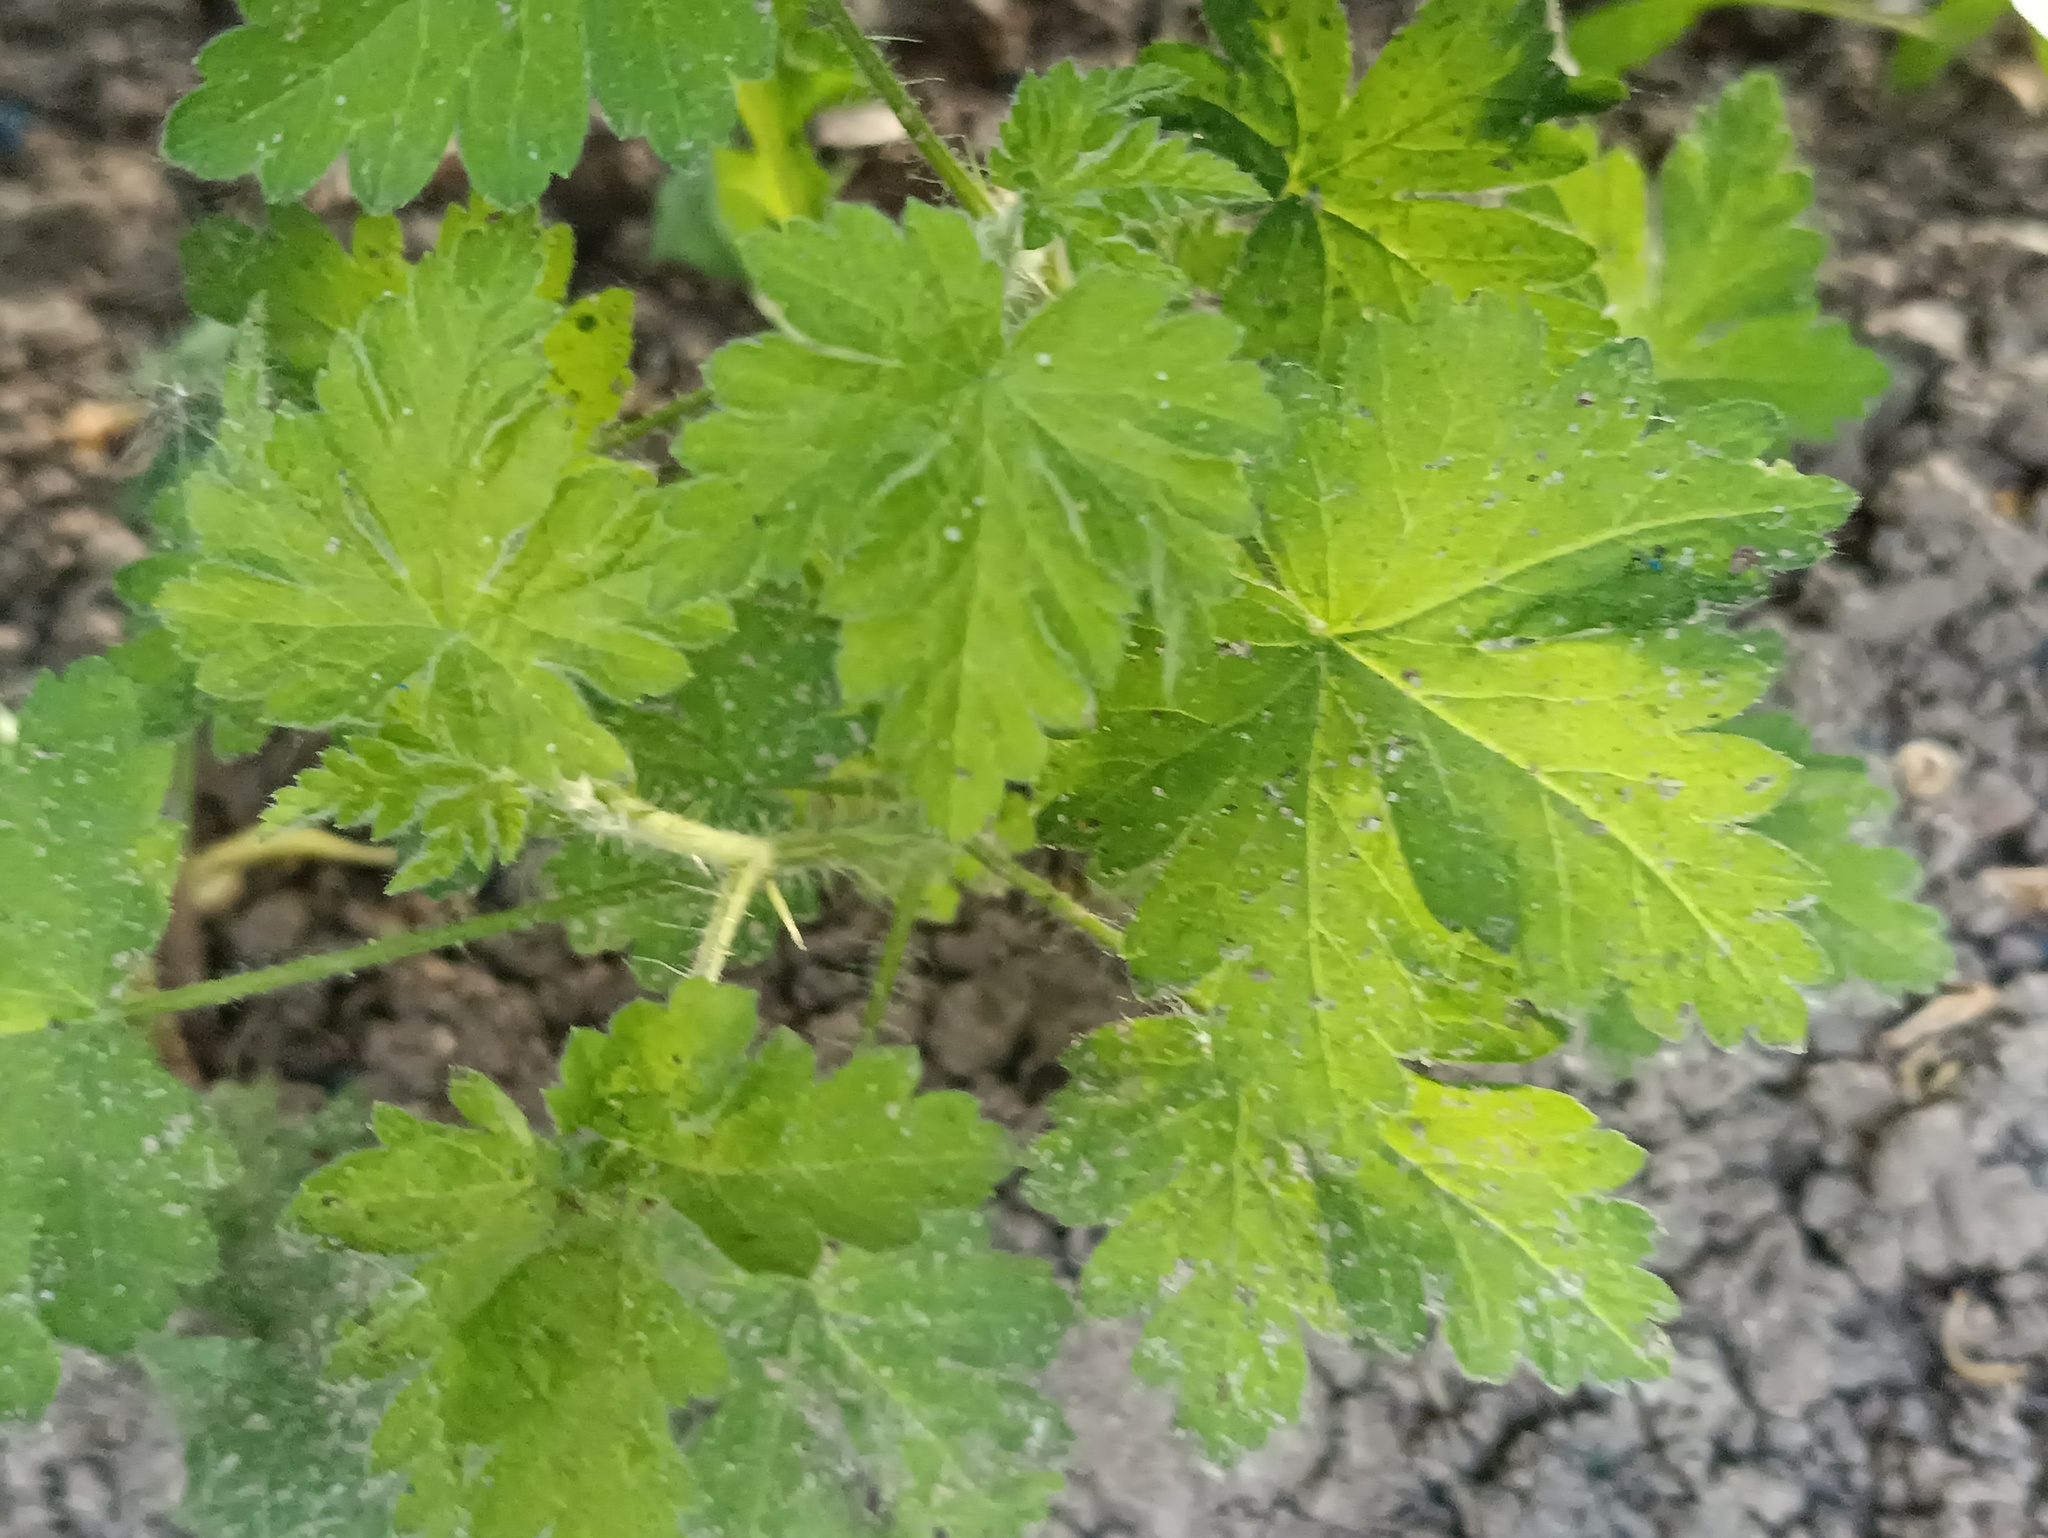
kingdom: Plantae
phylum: Tracheophyta
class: Magnoliopsida
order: Saxifragales
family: Grossulariaceae
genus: Ribes
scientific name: Ribes uva-crispa
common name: Gooseberry
